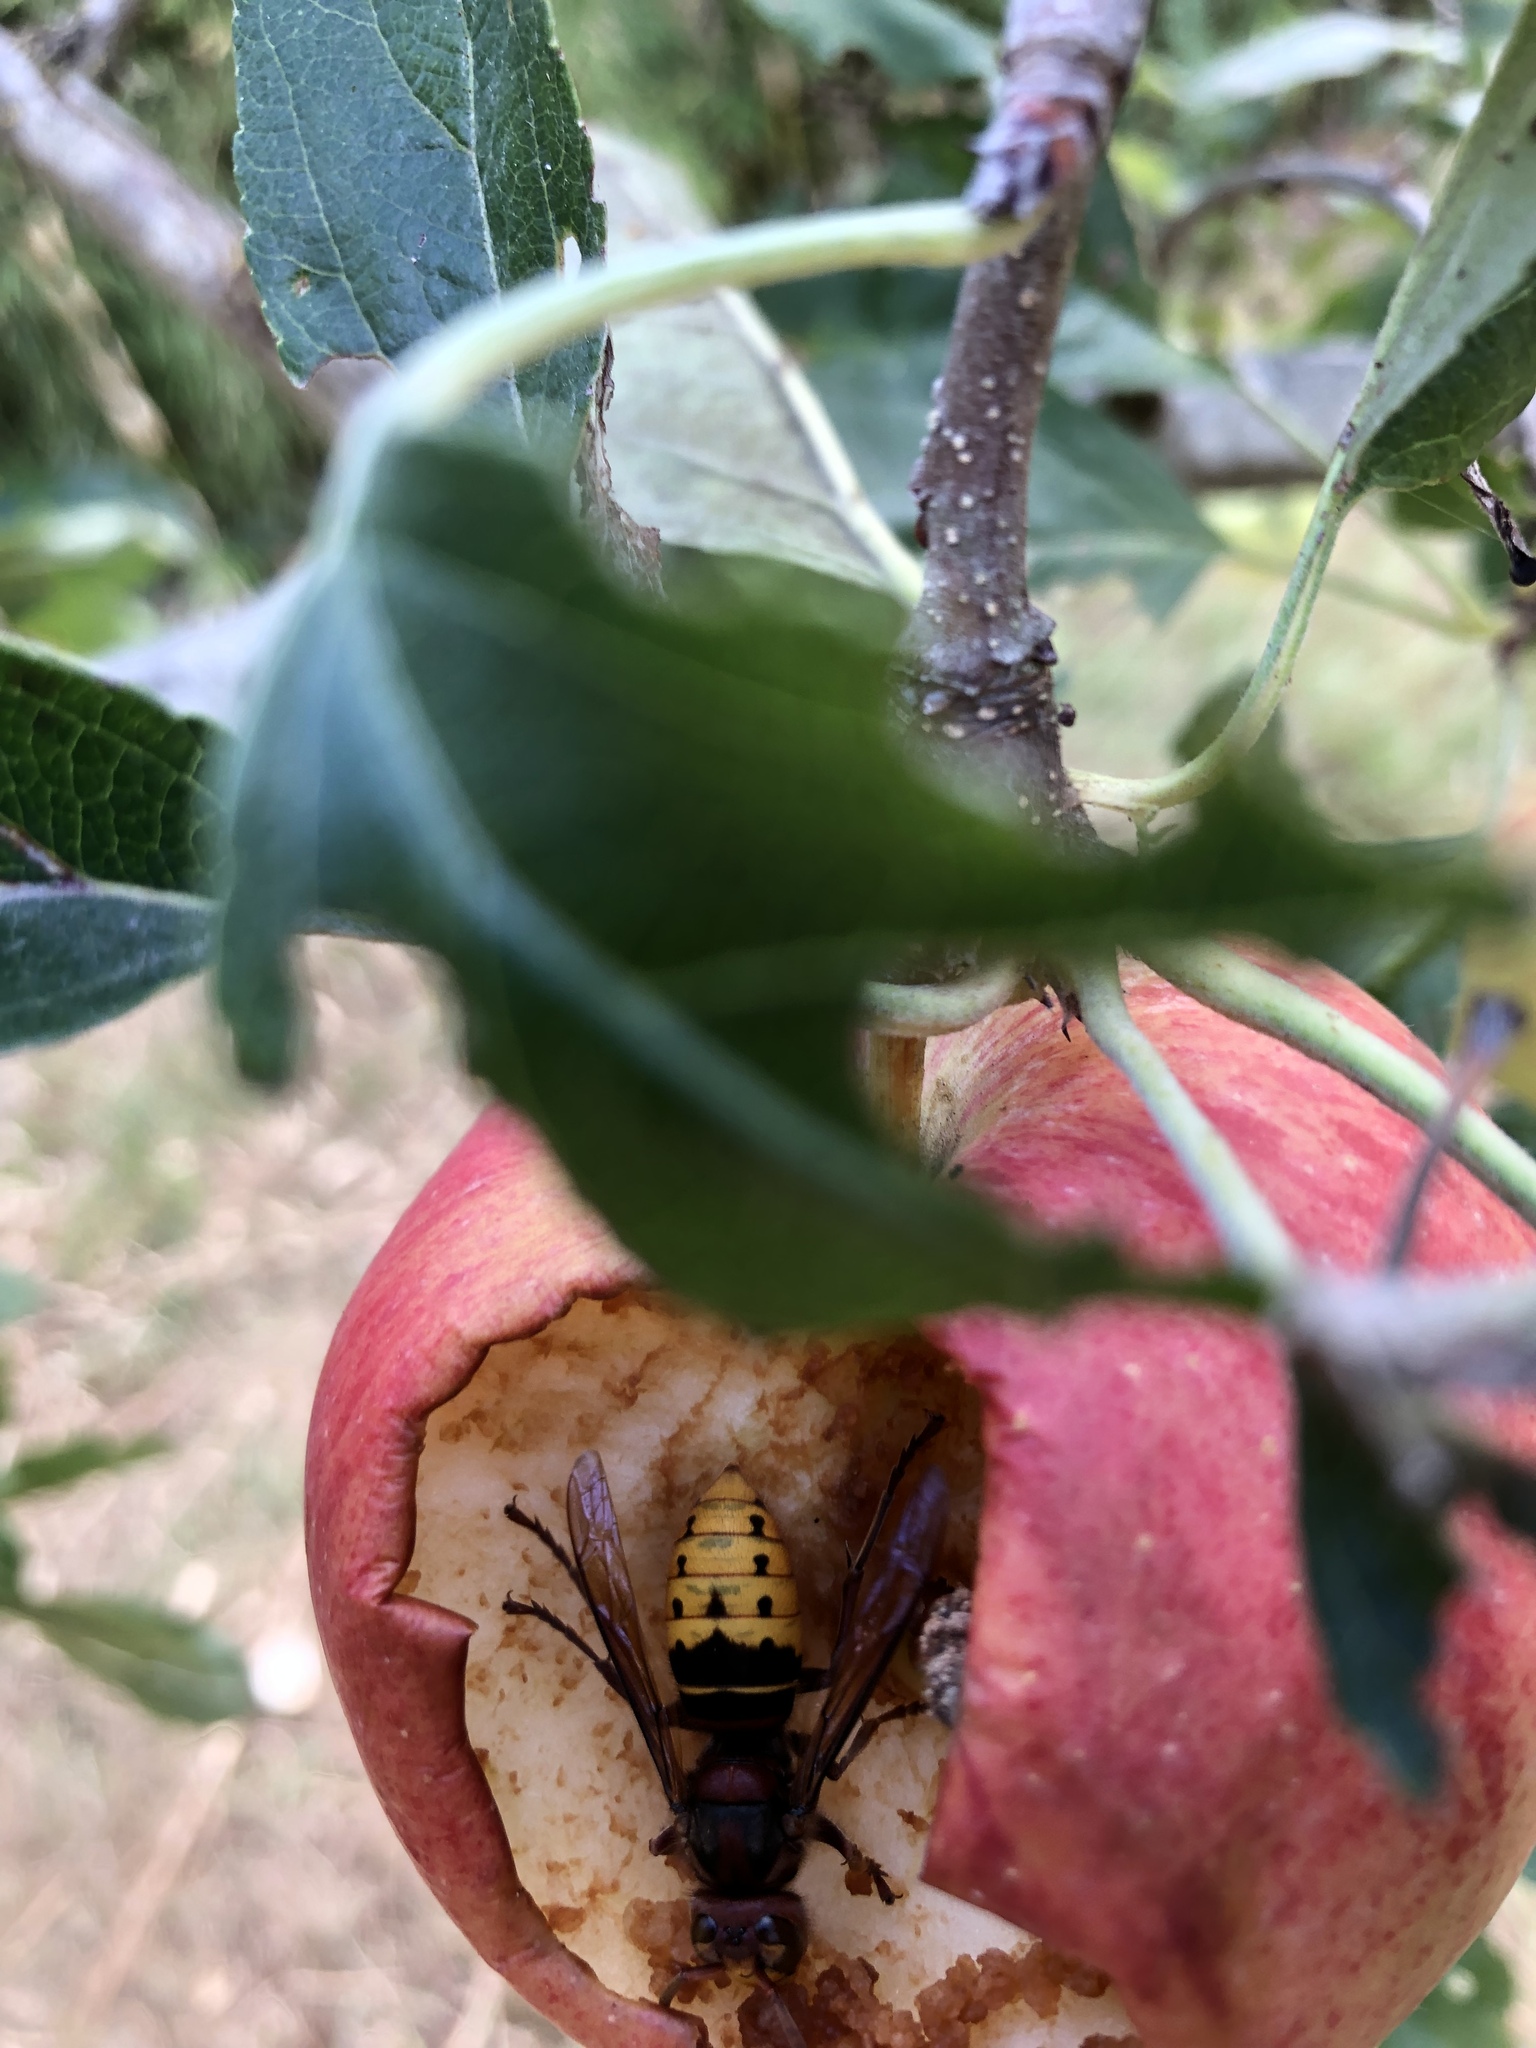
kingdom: Animalia
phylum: Arthropoda
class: Insecta
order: Hymenoptera
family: Vespidae
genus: Vespa
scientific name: Vespa crabro
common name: Hornet
